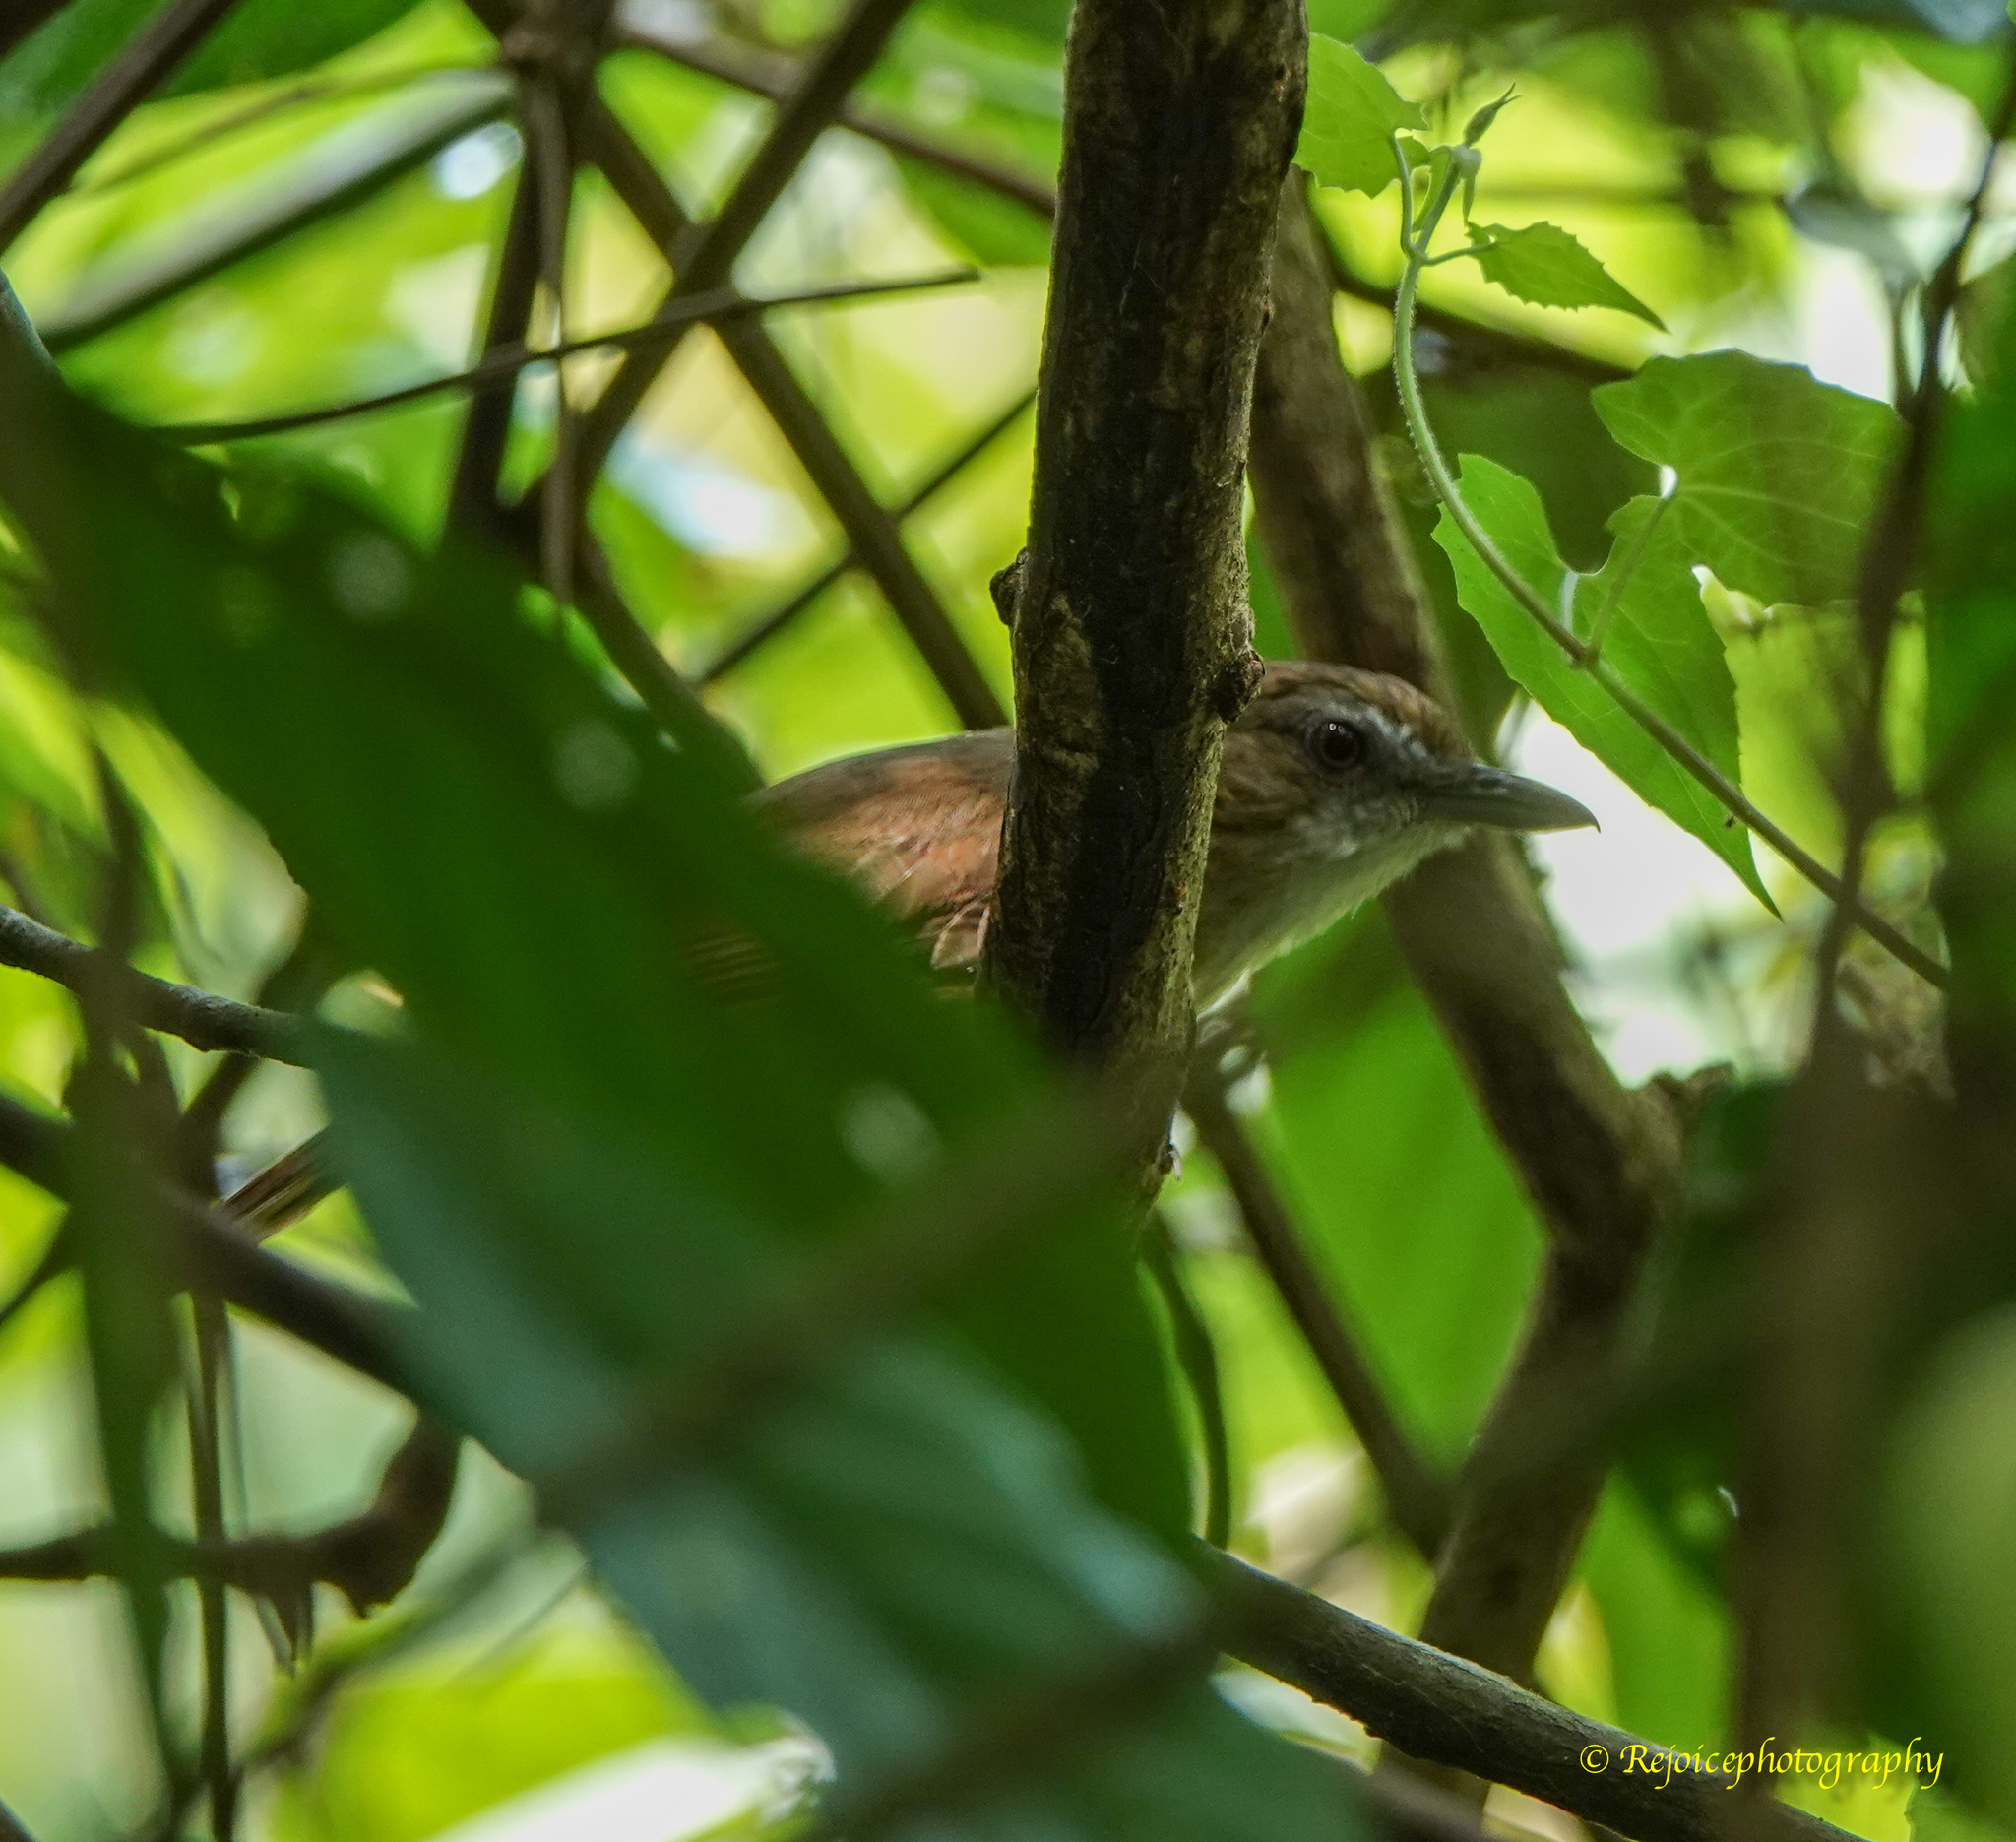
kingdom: Animalia
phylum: Chordata
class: Aves
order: Passeriformes
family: Pellorneidae
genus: Malacocincla
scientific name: Malacocincla abbotti
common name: Abbott's babbler
